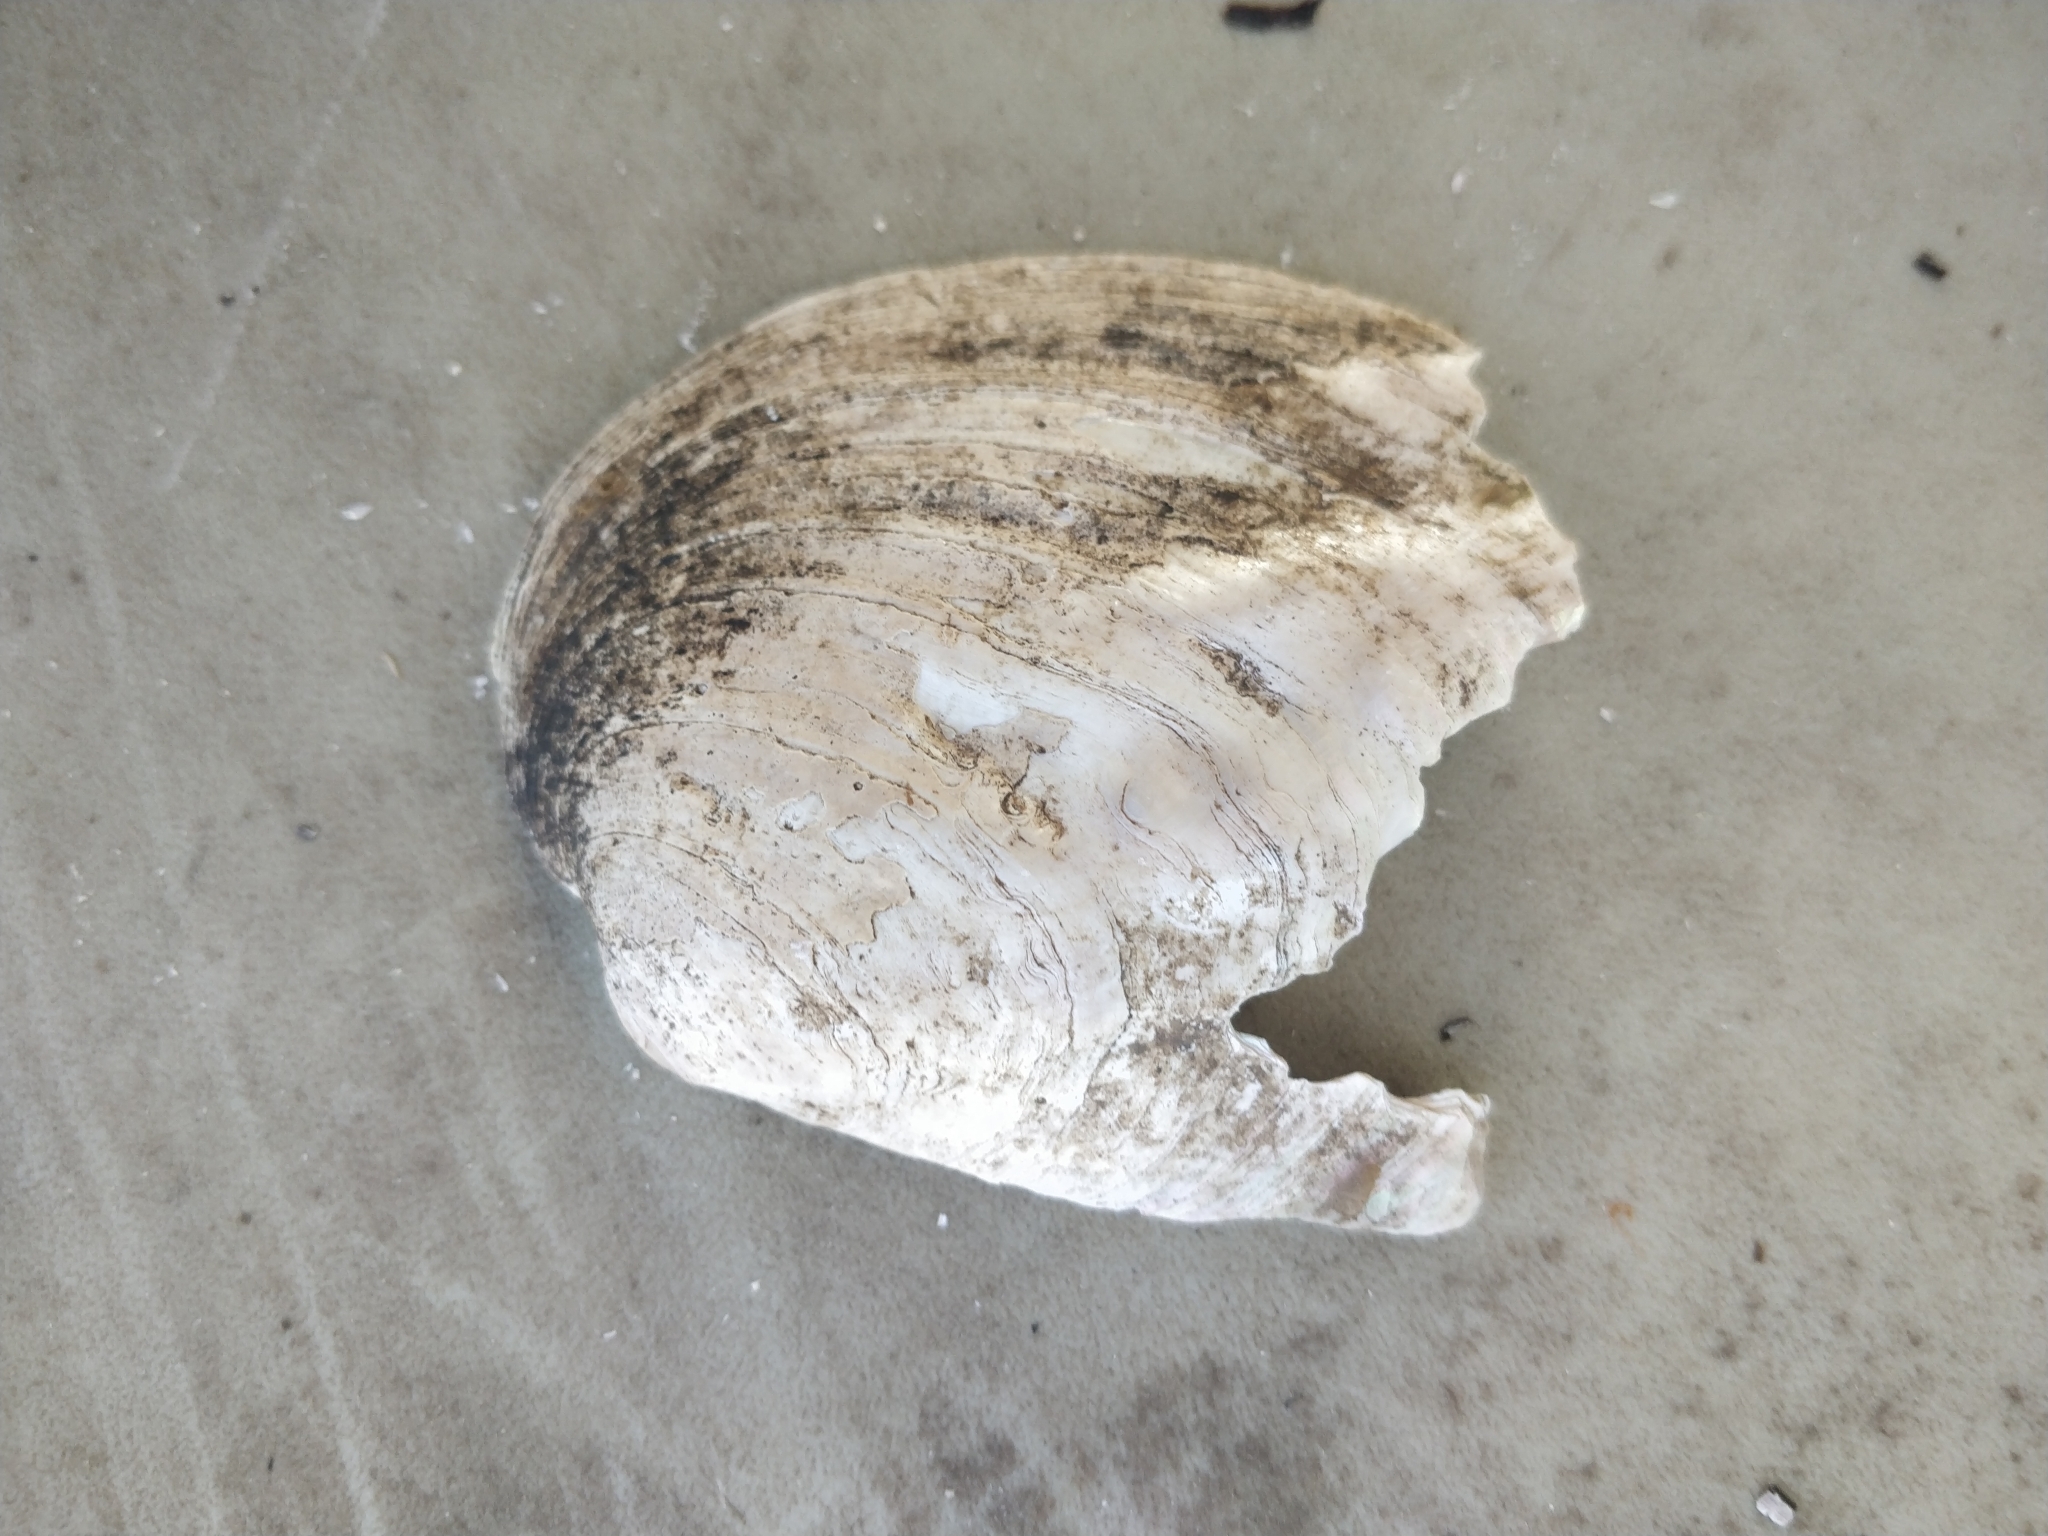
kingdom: Animalia
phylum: Mollusca
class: Bivalvia
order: Unionida
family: Unionidae
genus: Amblema
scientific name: Amblema plicata
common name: Threeridge
